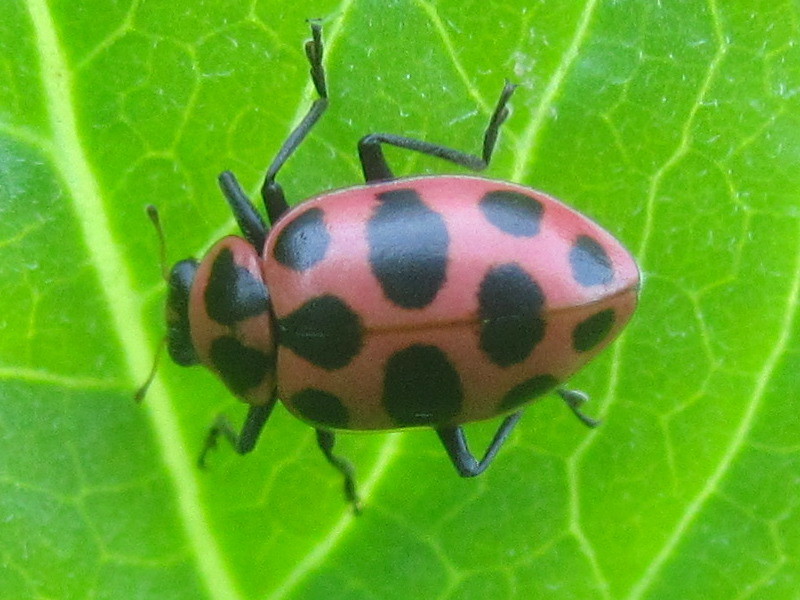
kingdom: Animalia
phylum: Arthropoda
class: Insecta
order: Coleoptera
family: Coccinellidae
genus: Coleomegilla
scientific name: Coleomegilla maculata
